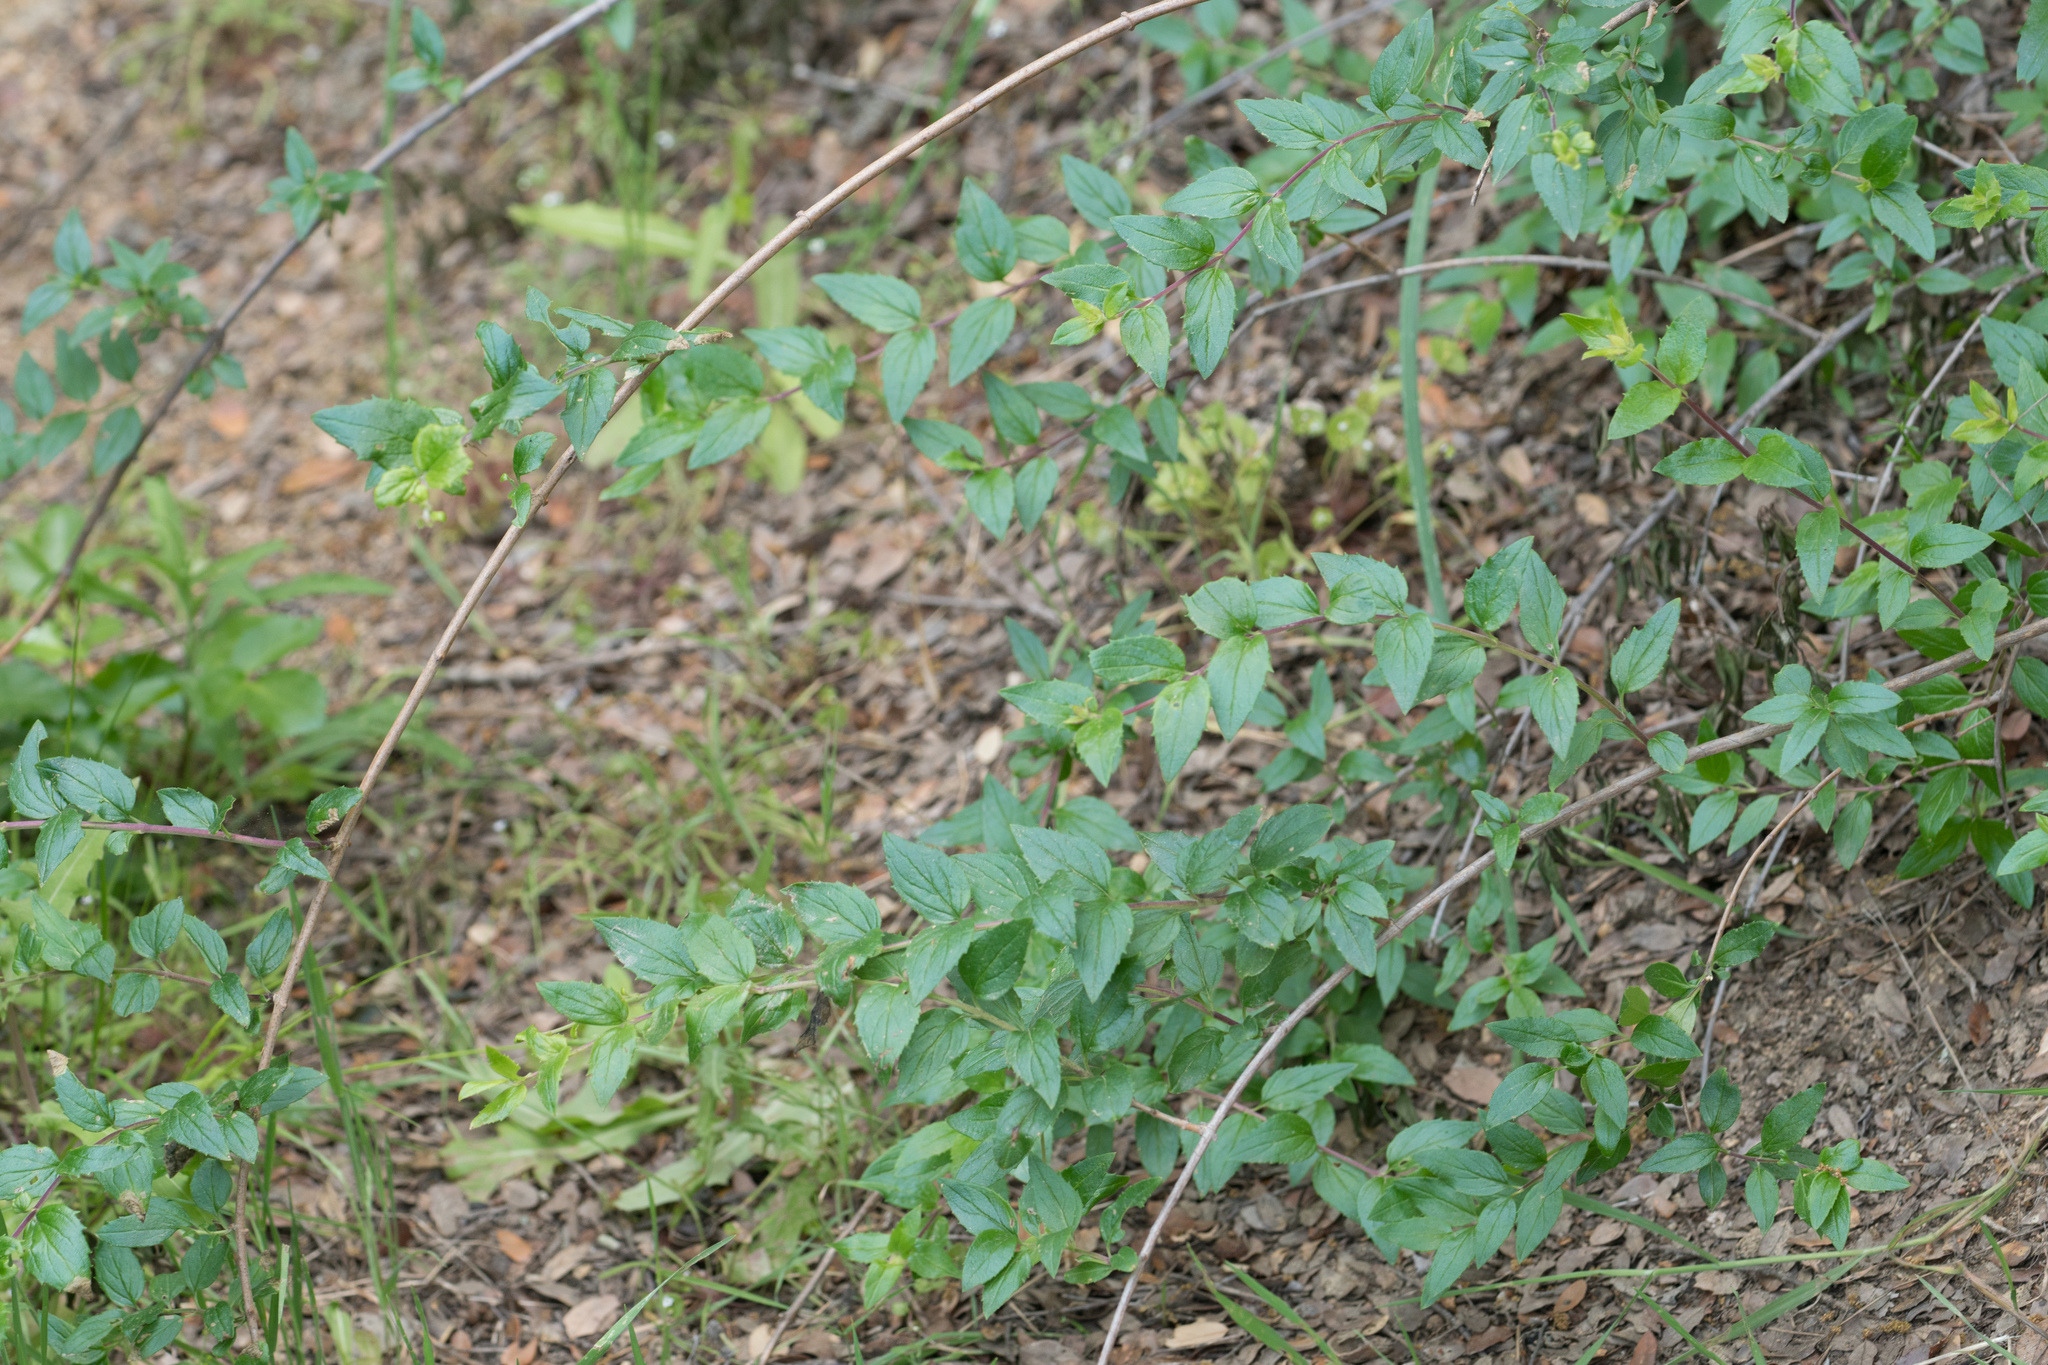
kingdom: Plantae
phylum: Tracheophyta
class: Magnoliopsida
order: Lamiales
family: Plantaginaceae
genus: Keckiella
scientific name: Keckiella cordifolia
